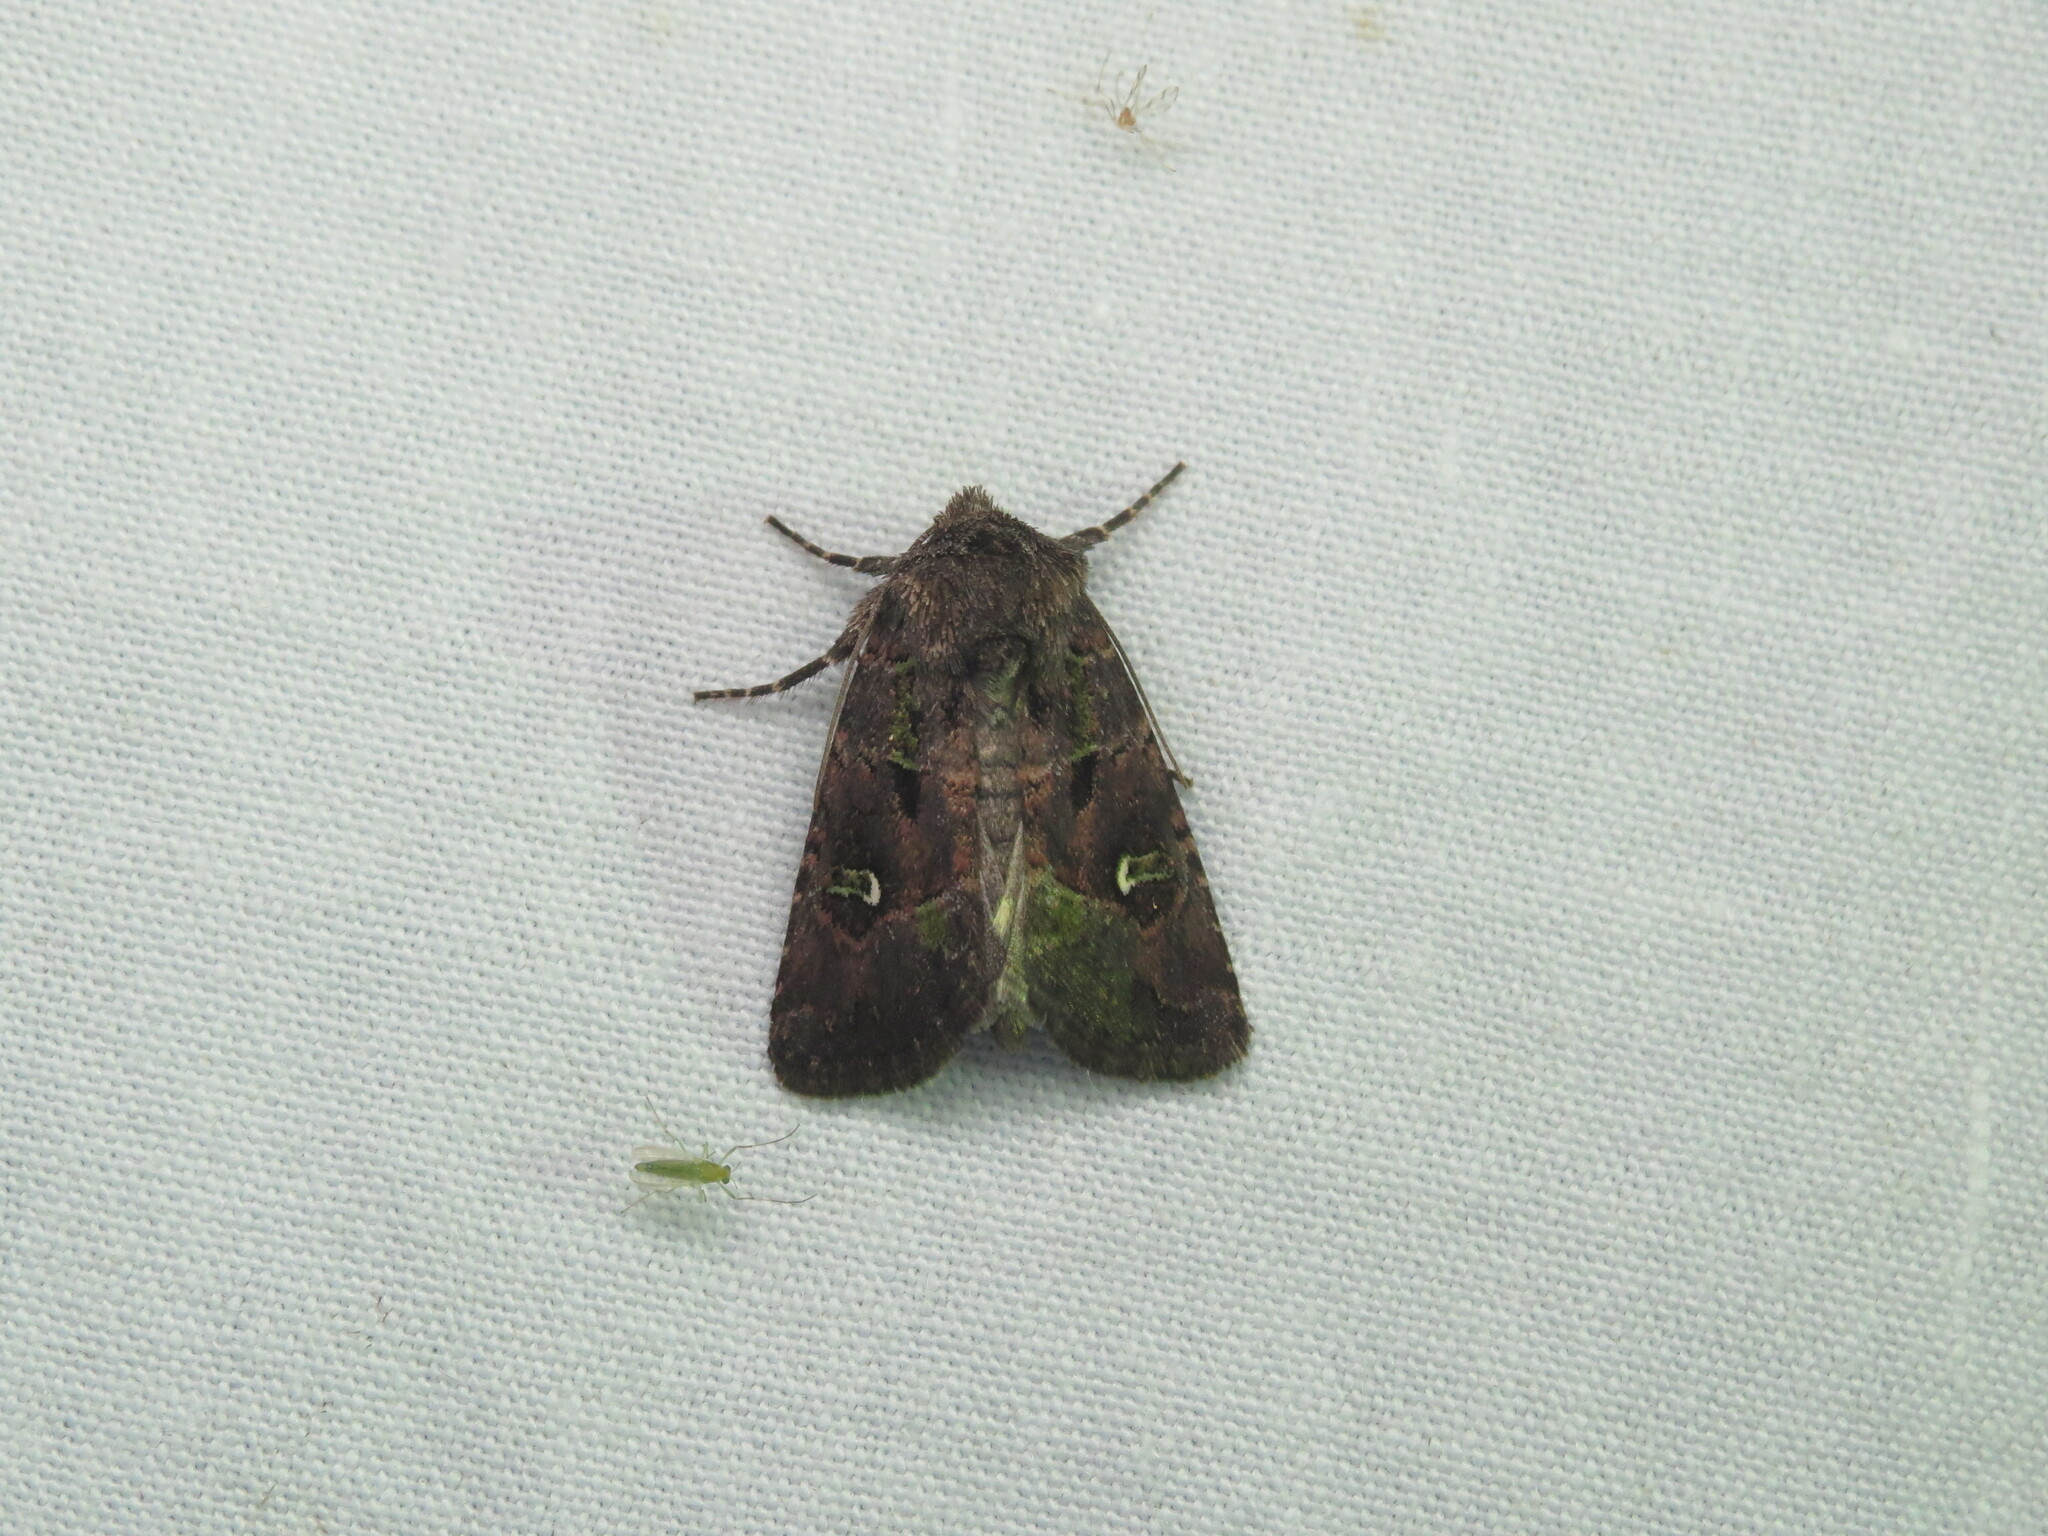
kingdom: Animalia
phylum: Arthropoda
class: Insecta
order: Lepidoptera
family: Noctuidae
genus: Lacinipolia
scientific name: Lacinipolia renigera
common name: Kidney-spotted minor
